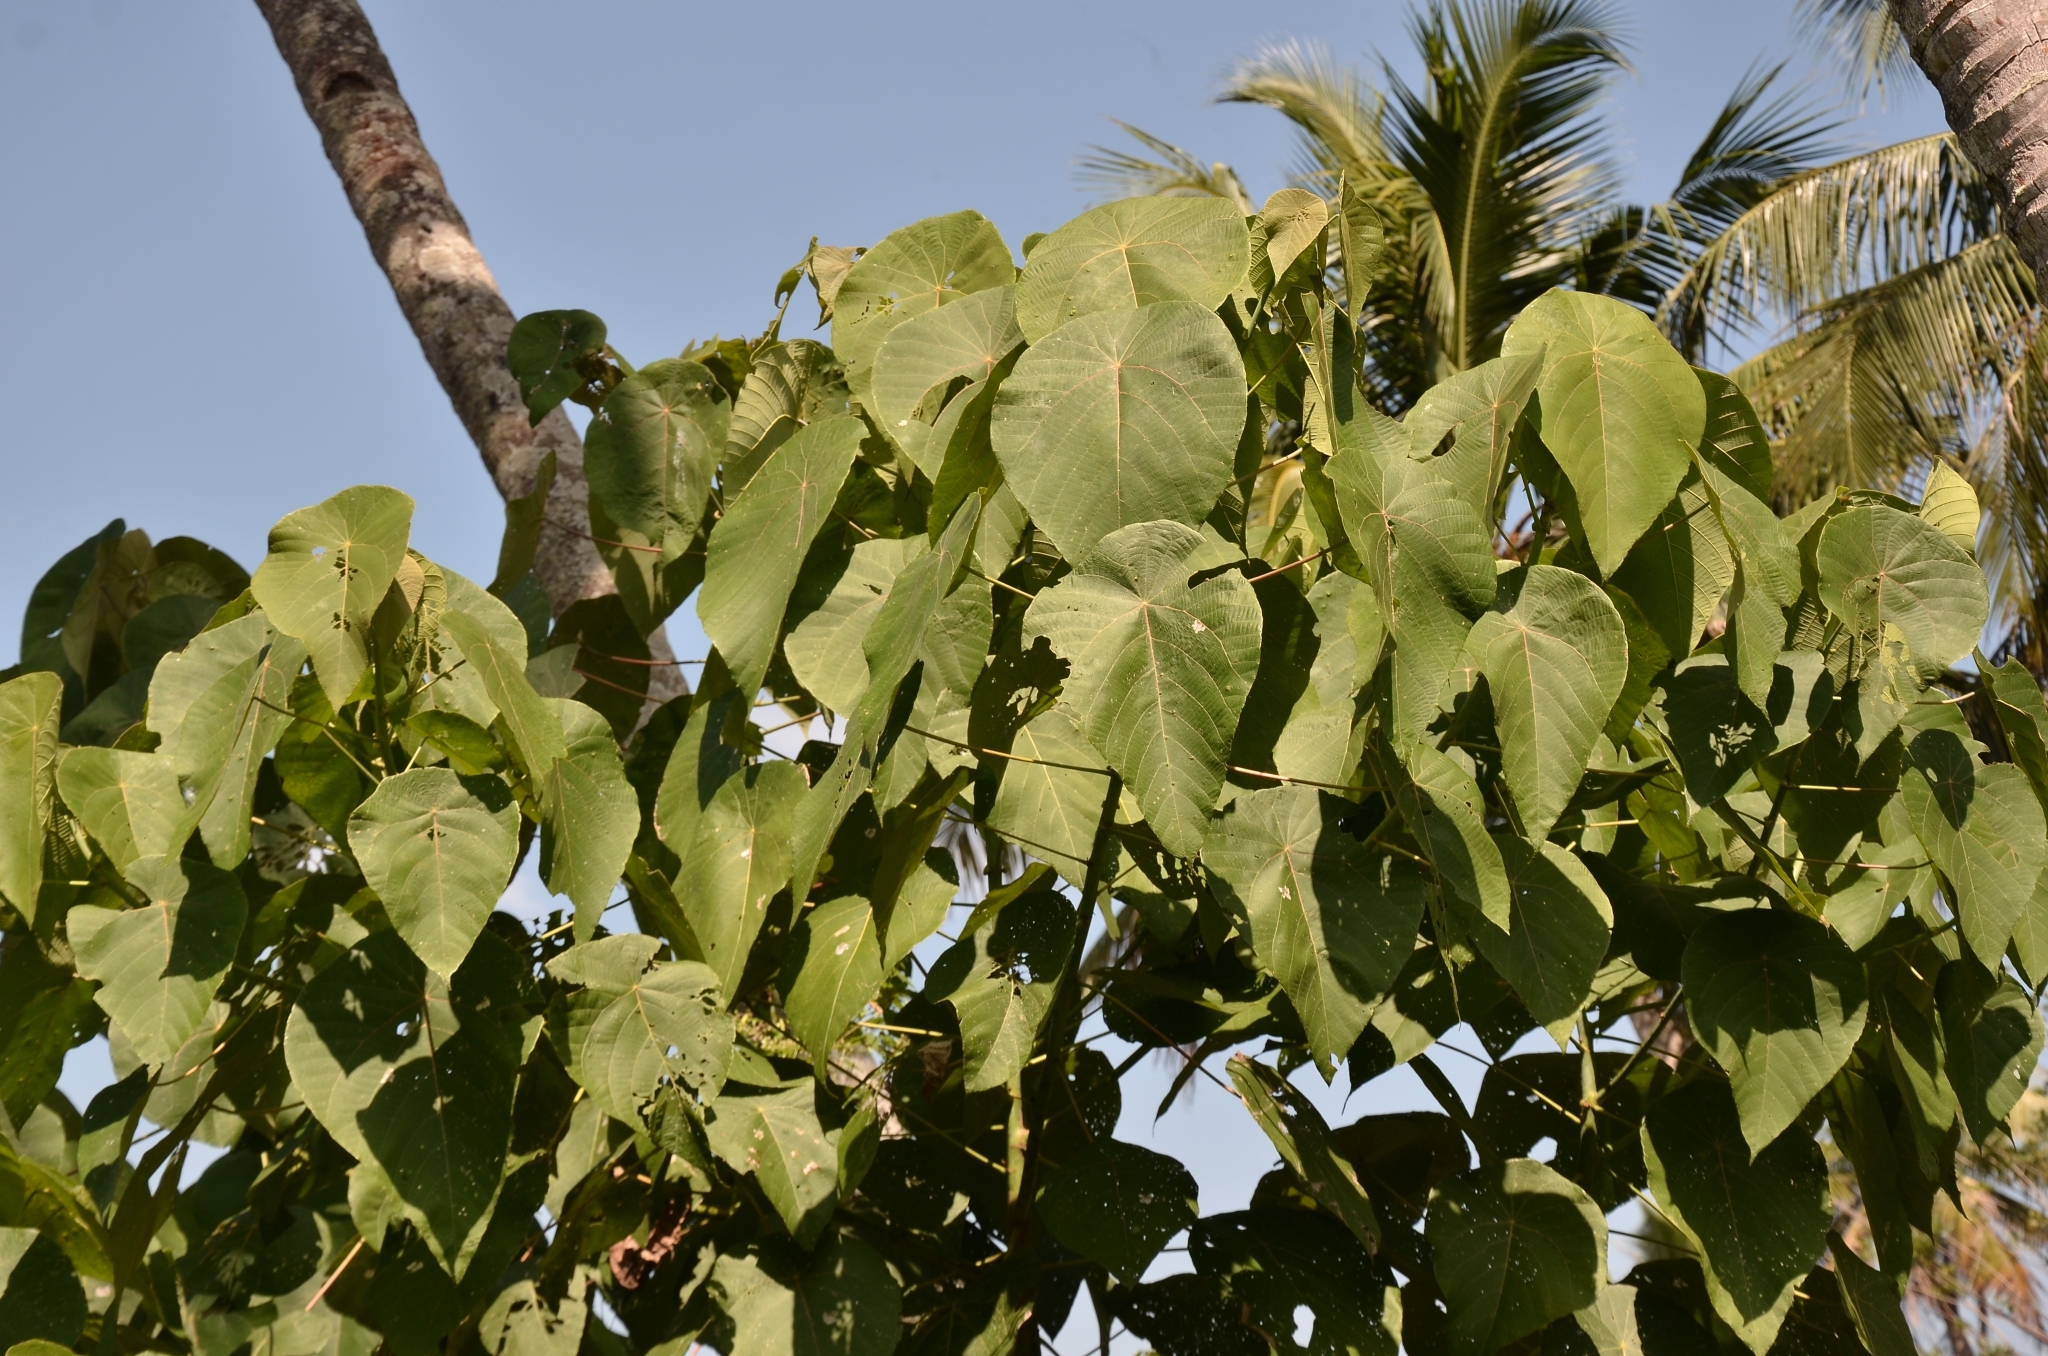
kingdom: Plantae
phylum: Tracheophyta
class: Magnoliopsida
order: Malpighiales
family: Euphorbiaceae
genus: Macaranga
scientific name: Macaranga peltata
